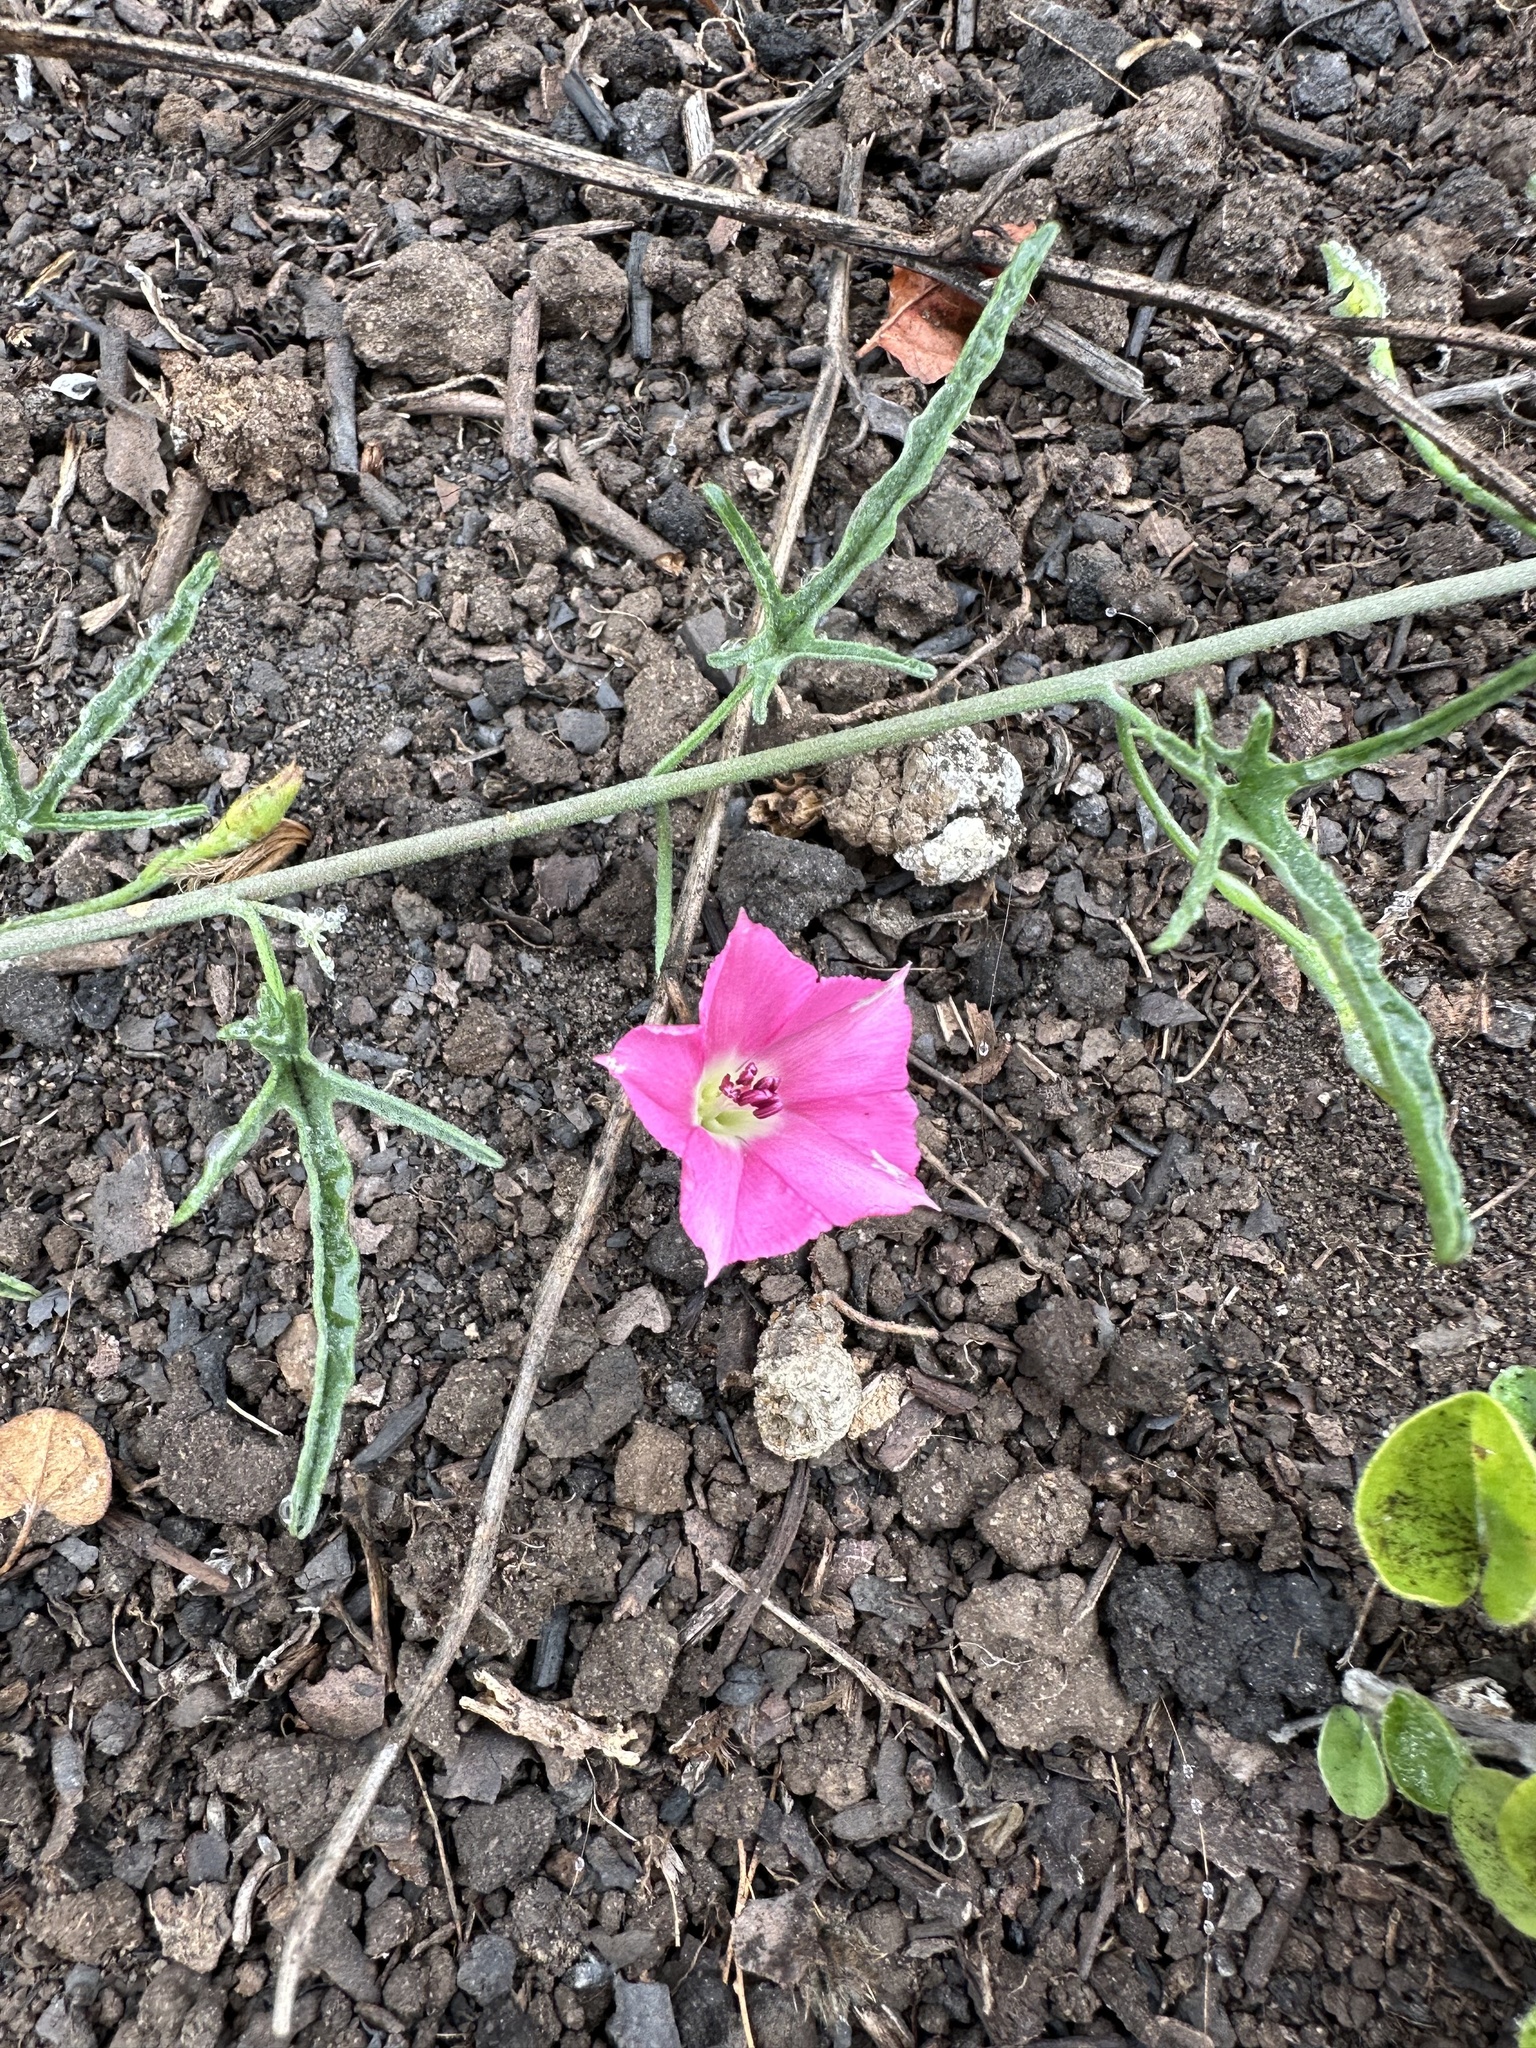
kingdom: Plantae
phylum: Tracheophyta
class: Magnoliopsida
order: Solanales
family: Convolvulaceae
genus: Convolvulus
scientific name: Convolvulus chilensis
